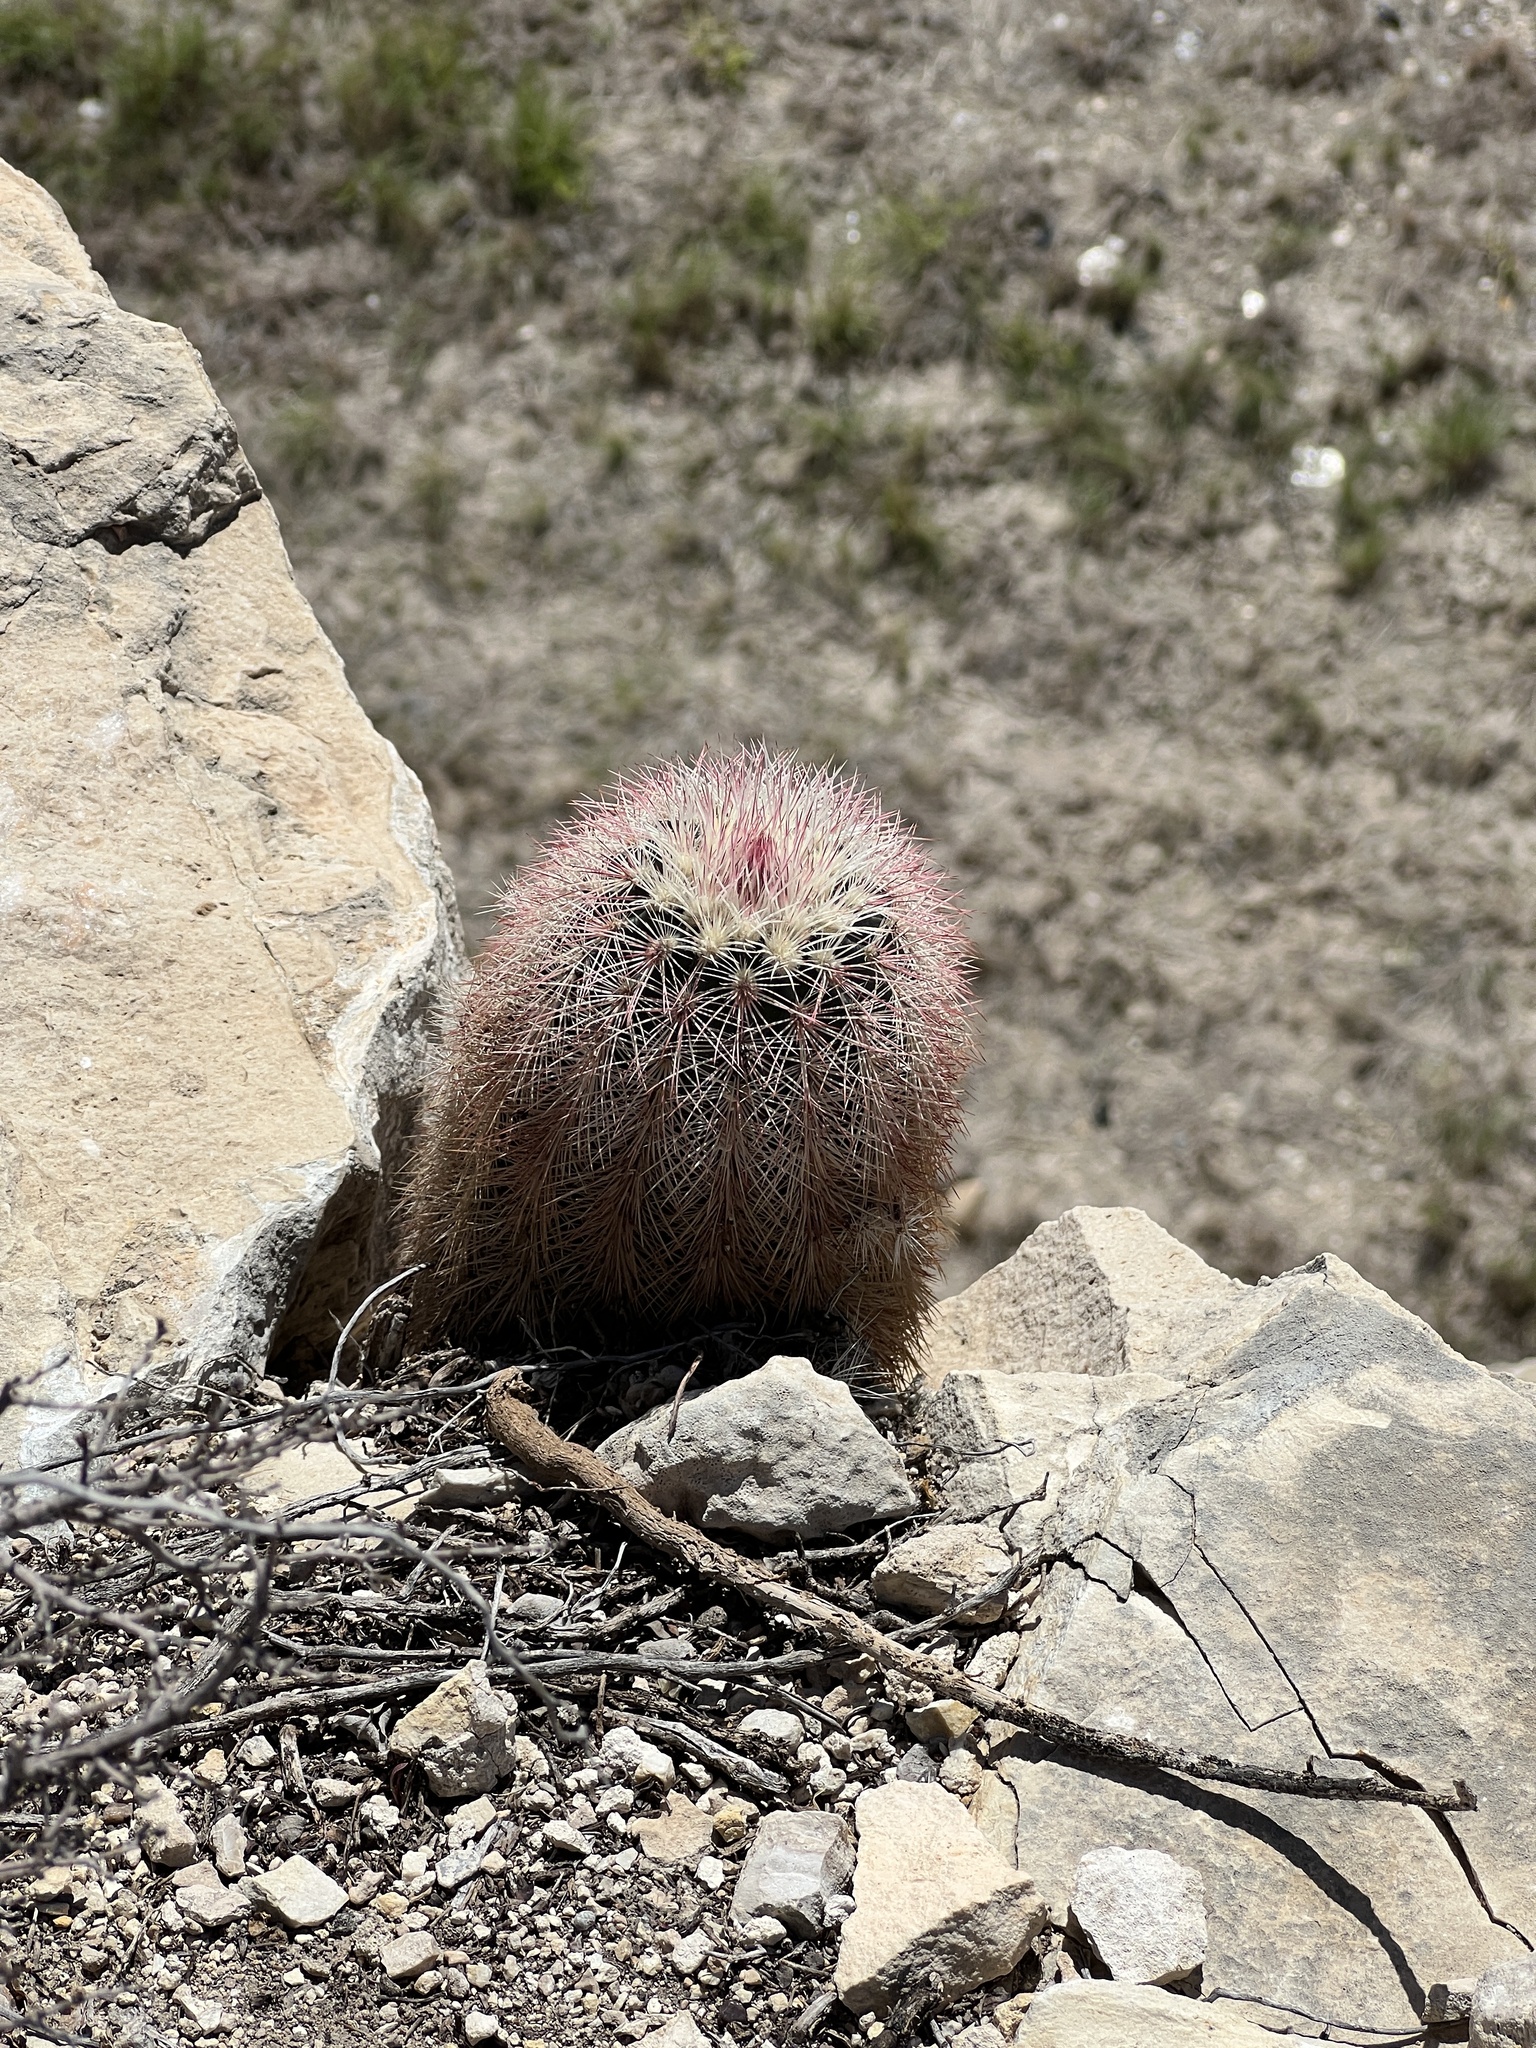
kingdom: Plantae
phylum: Tracheophyta
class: Magnoliopsida
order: Caryophyllales
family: Cactaceae
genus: Echinocereus
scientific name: Echinocereus dasyacanthus
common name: Spiny hedgehog cactus
